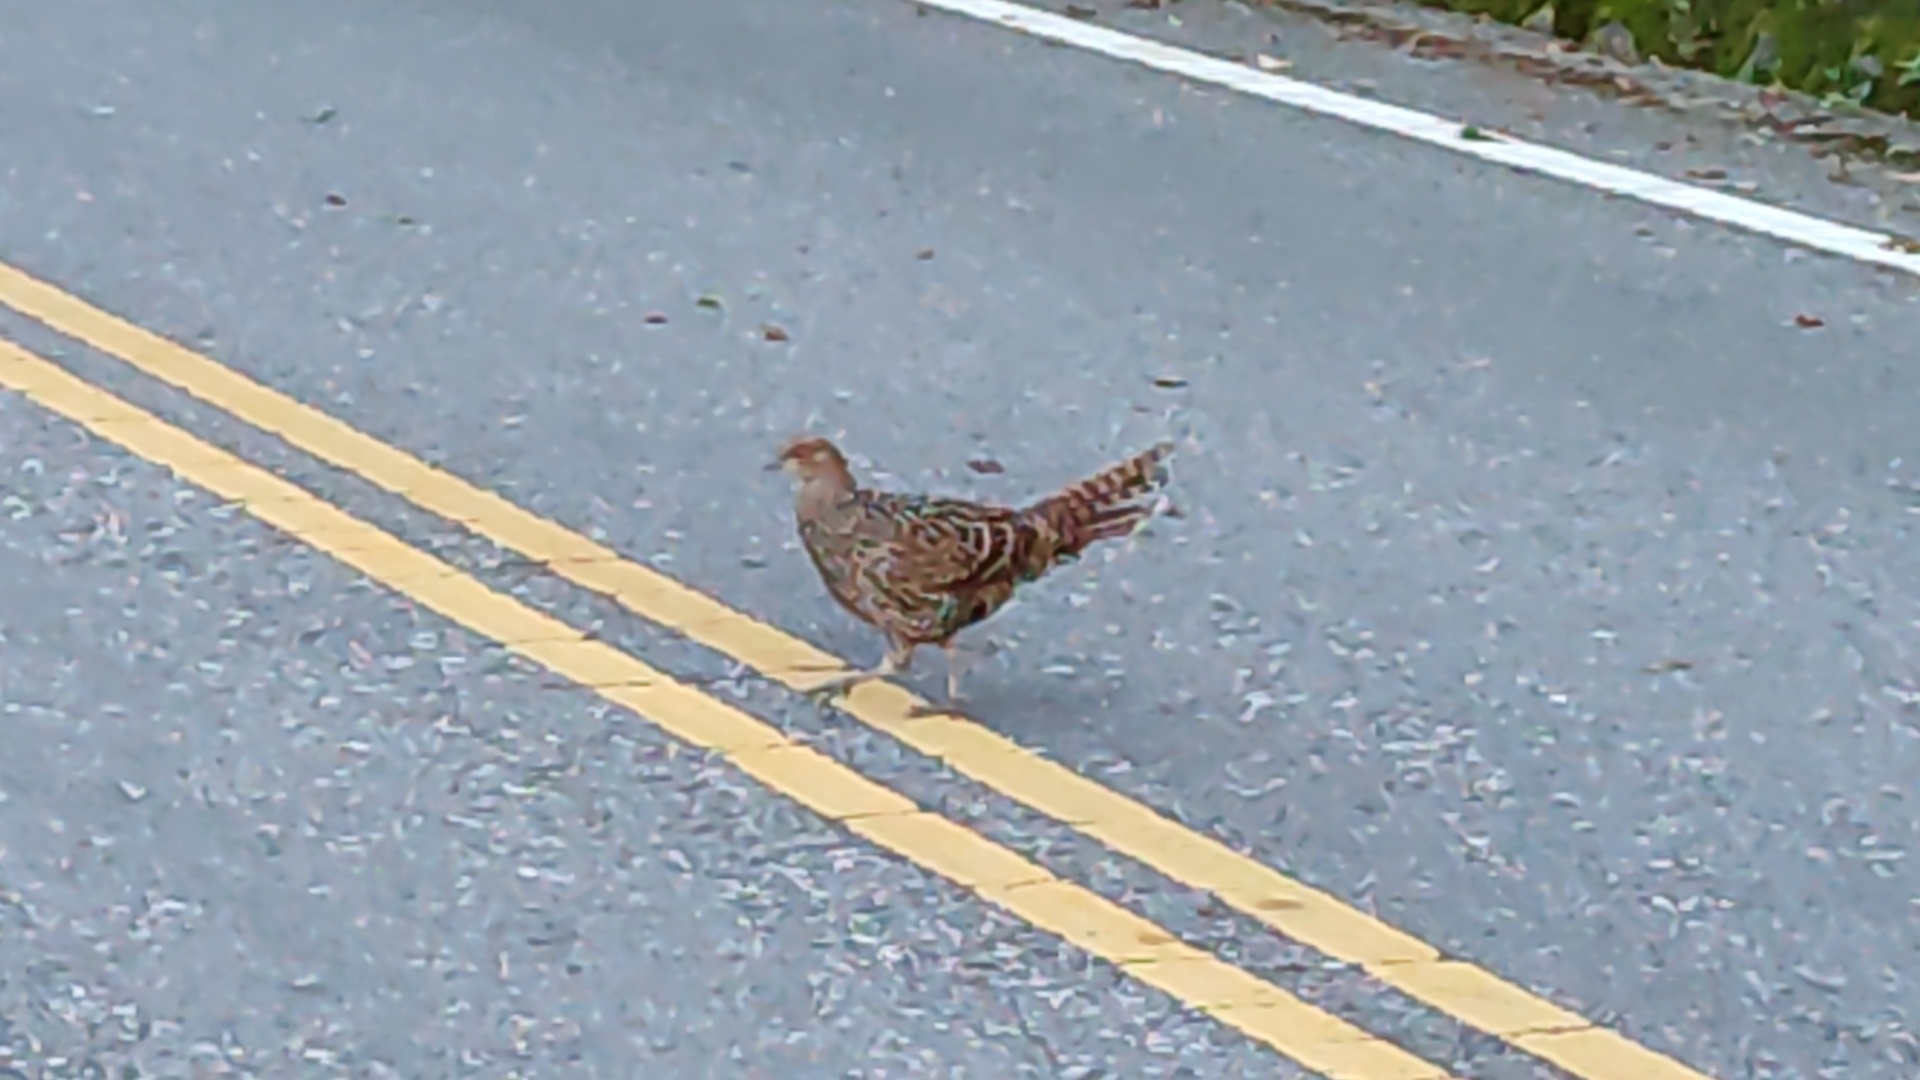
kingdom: Animalia
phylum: Chordata
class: Aves
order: Galliformes
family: Phasianidae
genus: Syrmaticus
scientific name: Syrmaticus mikado
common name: Mikado pheasant
